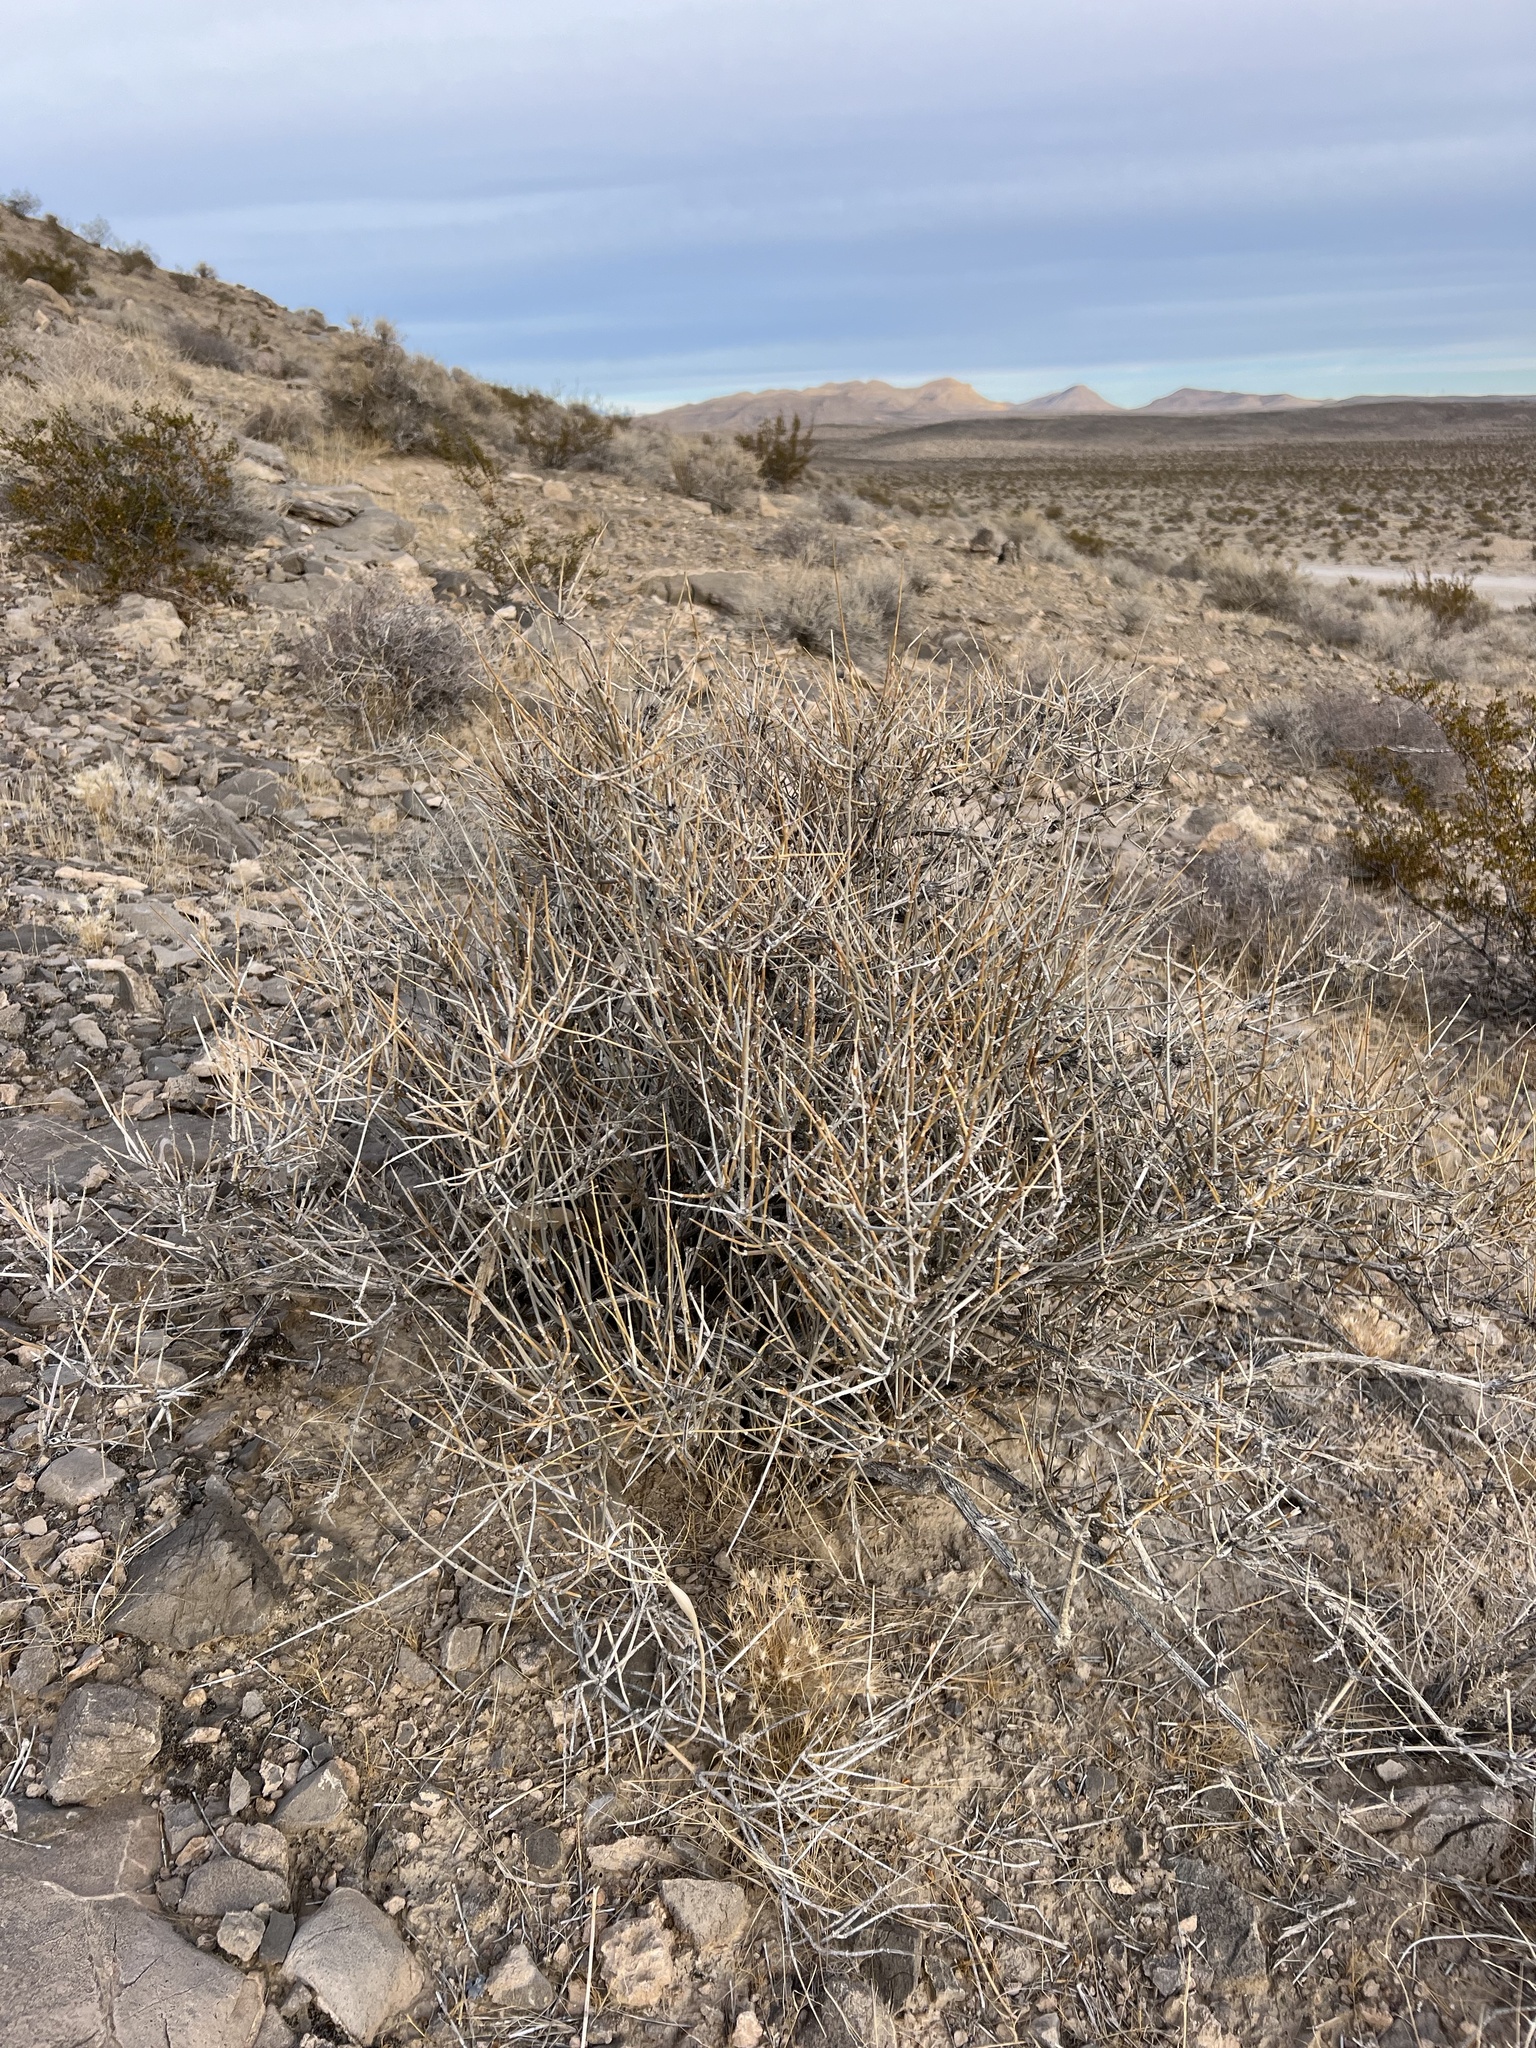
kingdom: Plantae
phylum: Tracheophyta
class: Gnetopsida
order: Ephedrales
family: Ephedraceae
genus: Ephedra
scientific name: Ephedra nevadensis
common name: Gray ephedra
